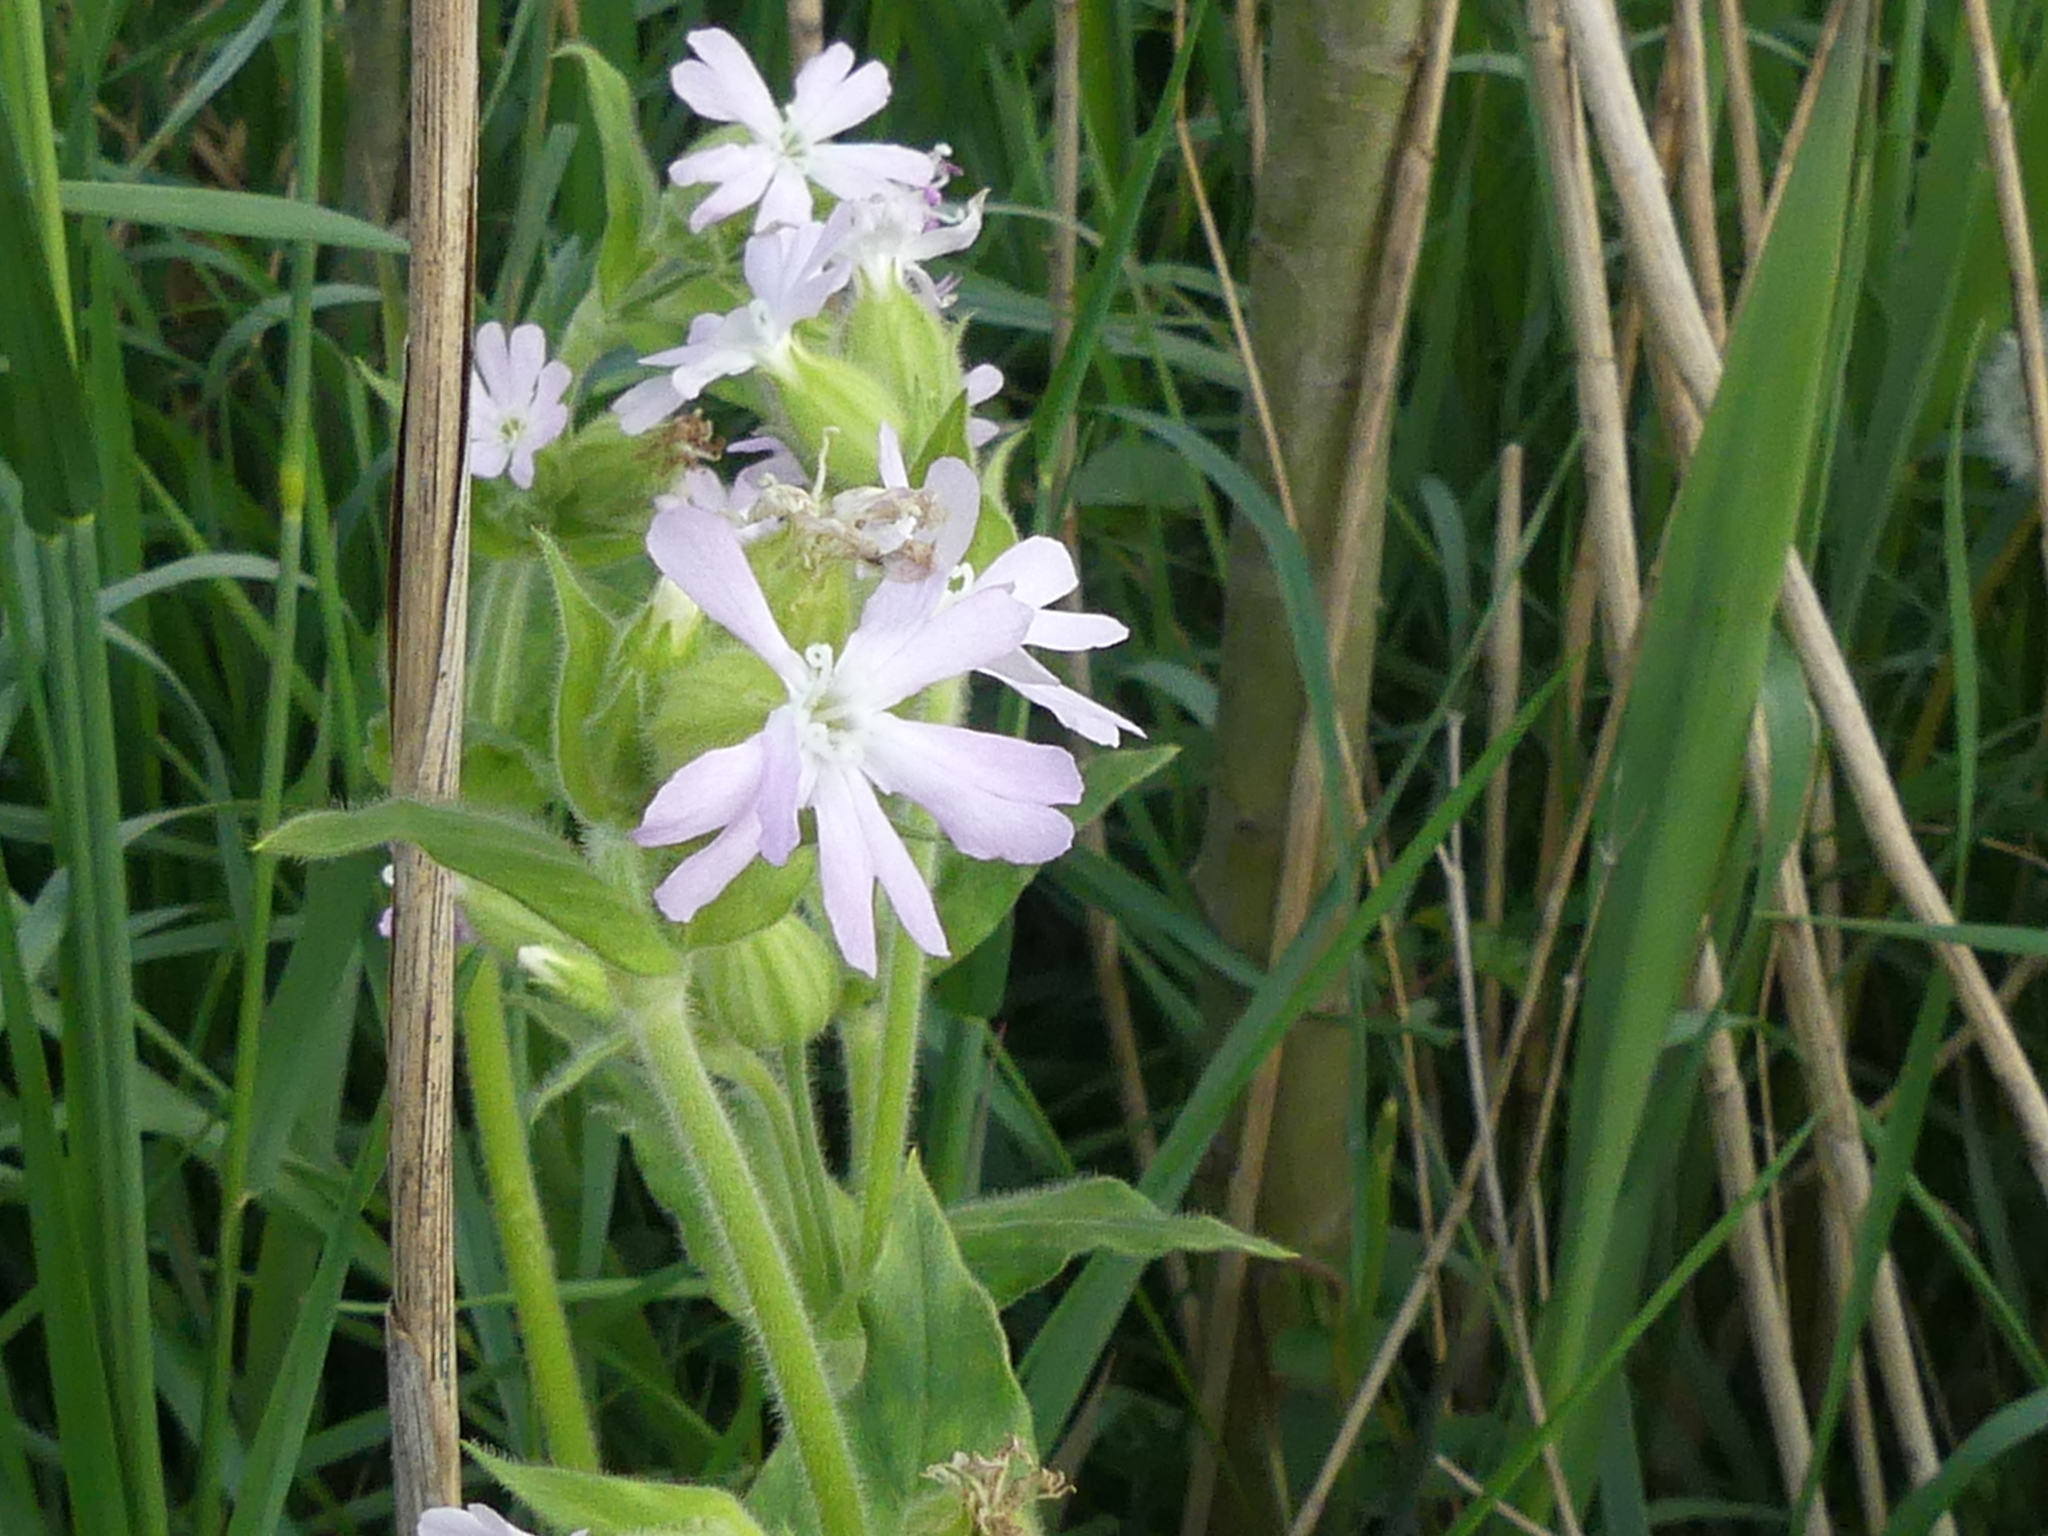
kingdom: Plantae
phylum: Tracheophyta
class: Magnoliopsida
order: Caryophyllales
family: Caryophyllaceae
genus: Silene
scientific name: Silene latifolia
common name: White campion
